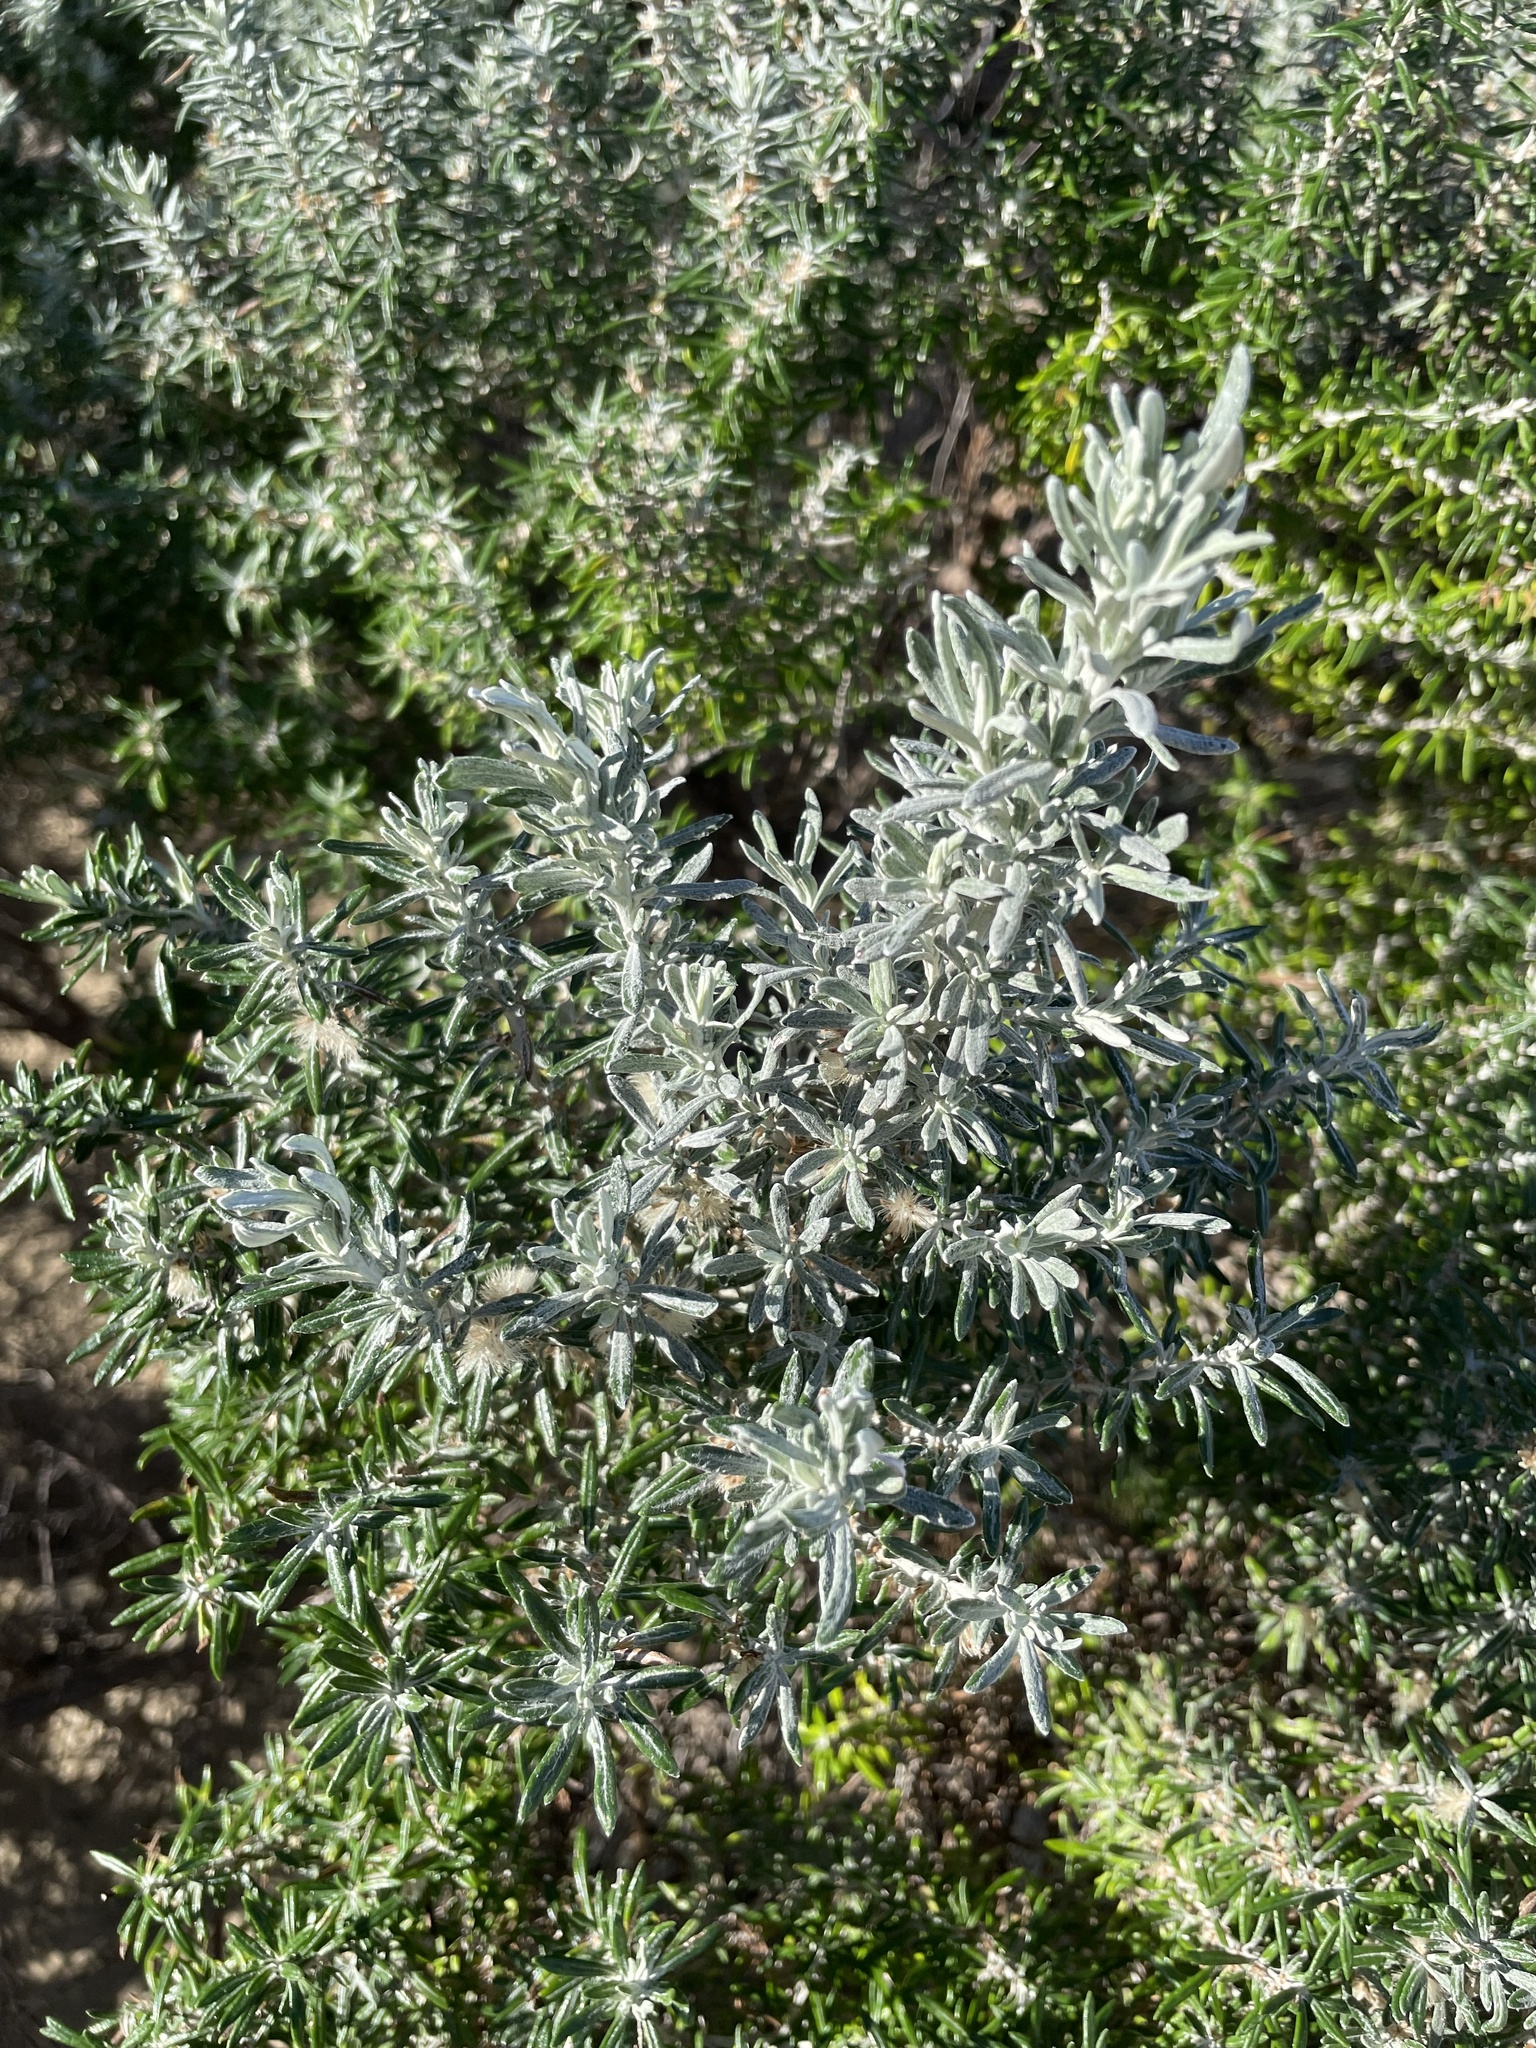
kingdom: Plantae
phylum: Tracheophyta
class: Magnoliopsida
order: Asterales
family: Asteraceae
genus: Olearia
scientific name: Olearia axillaris
